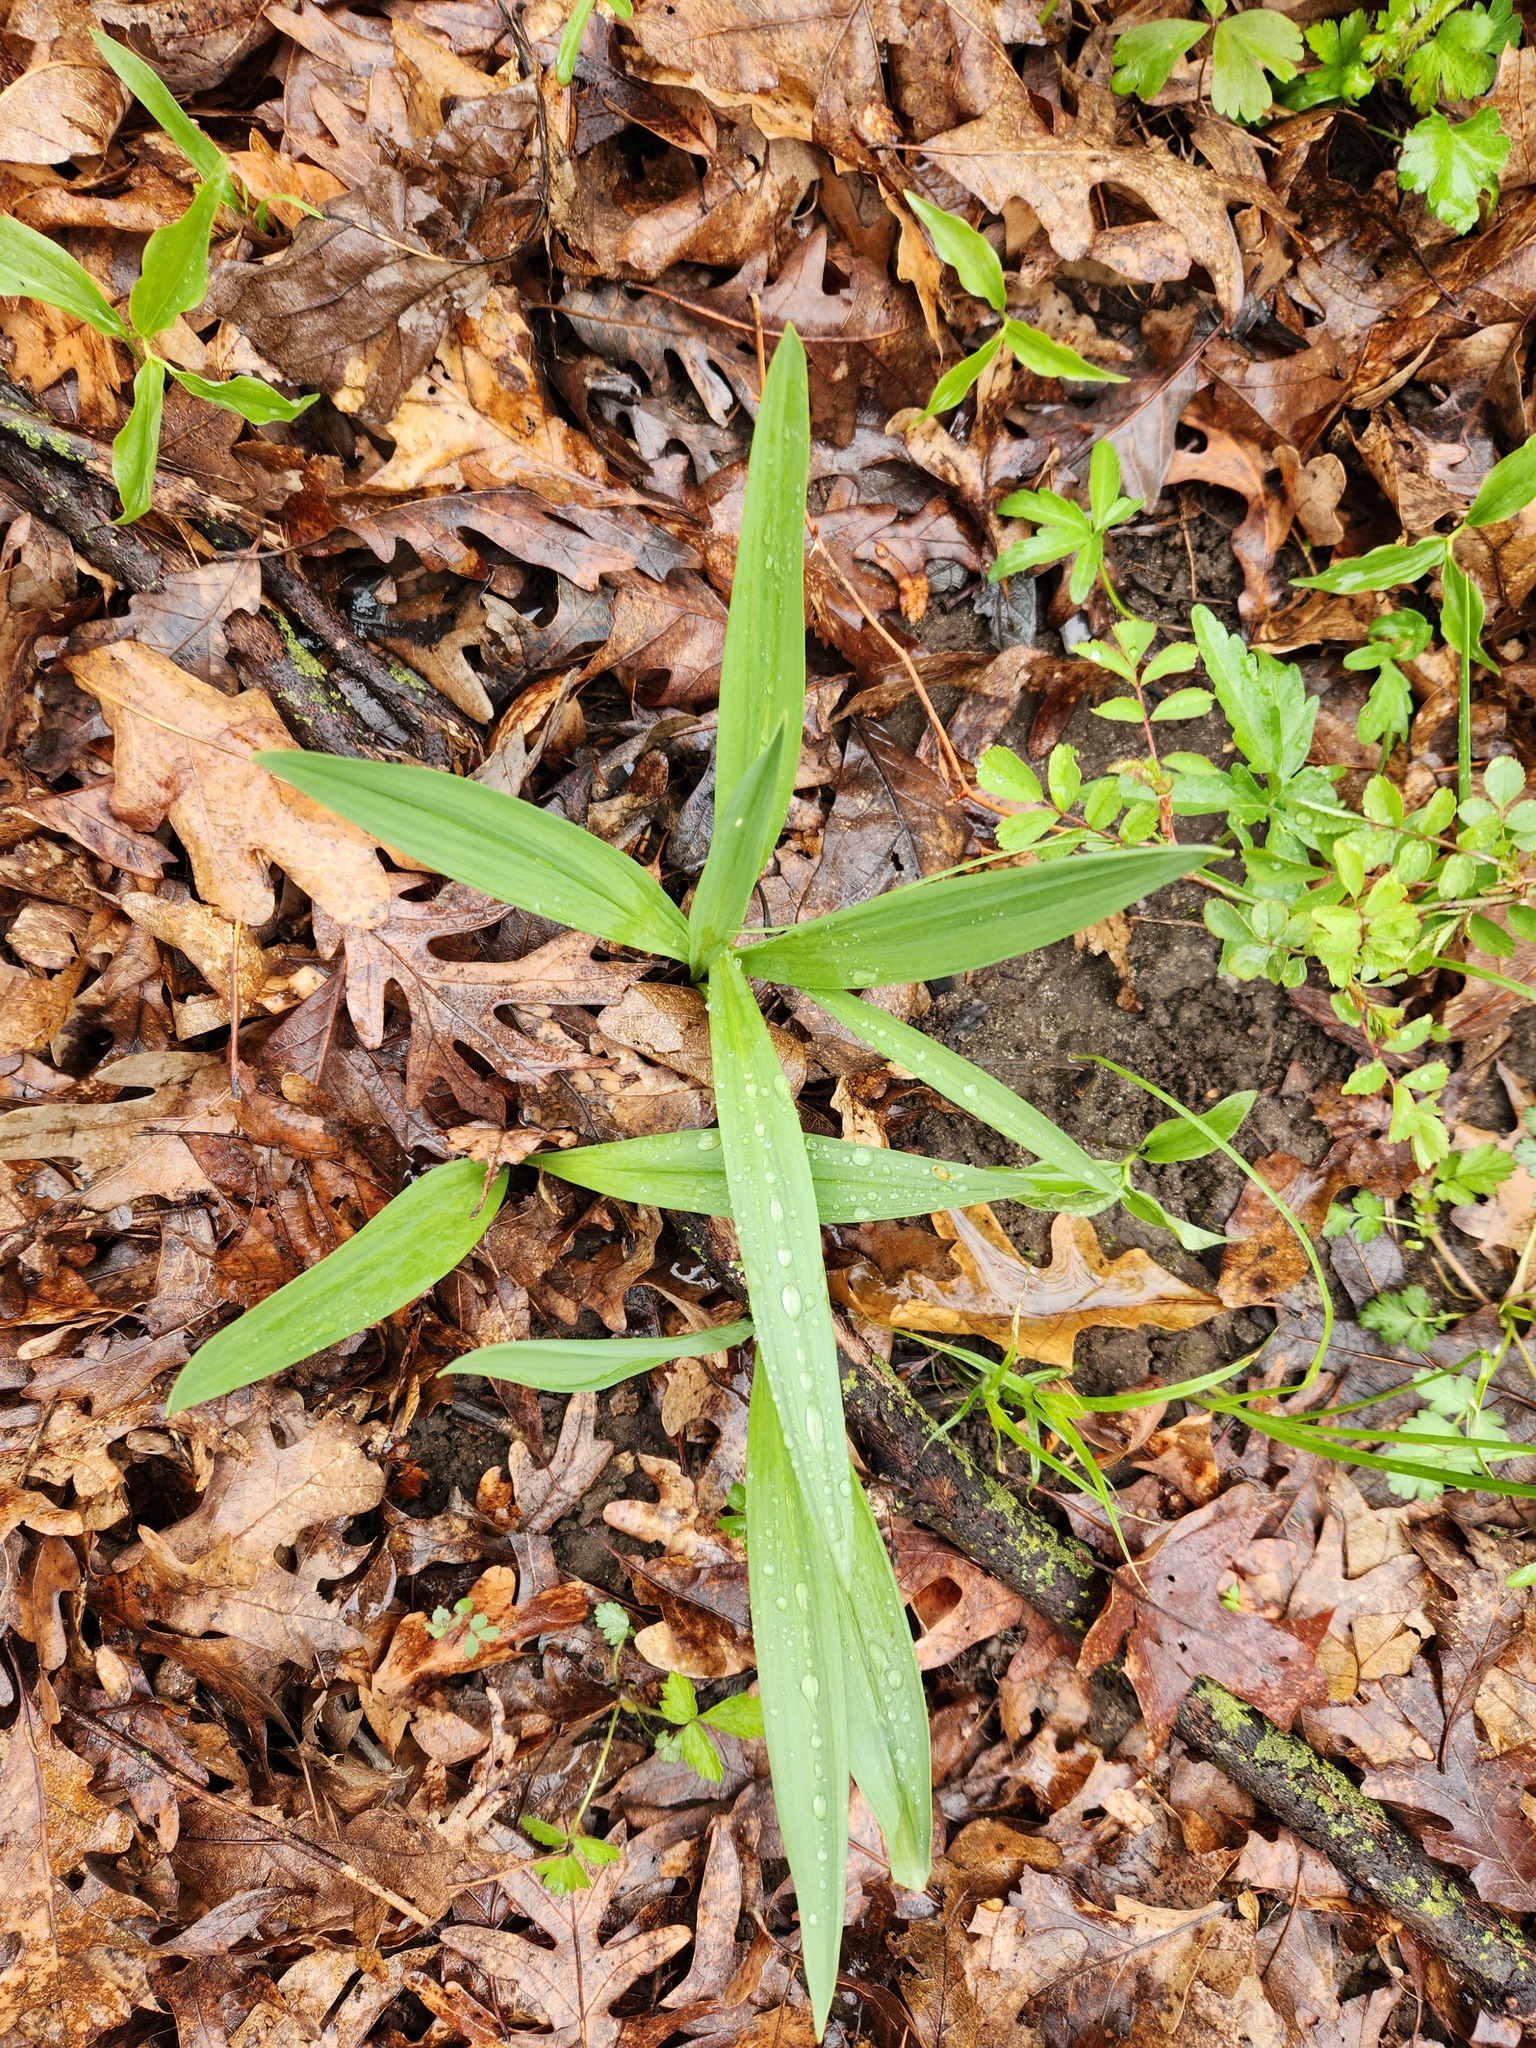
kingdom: Plantae
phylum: Tracheophyta
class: Liliopsida
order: Asparagales
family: Amaryllidaceae
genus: Allium
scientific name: Allium tricoccum
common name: Ramp
